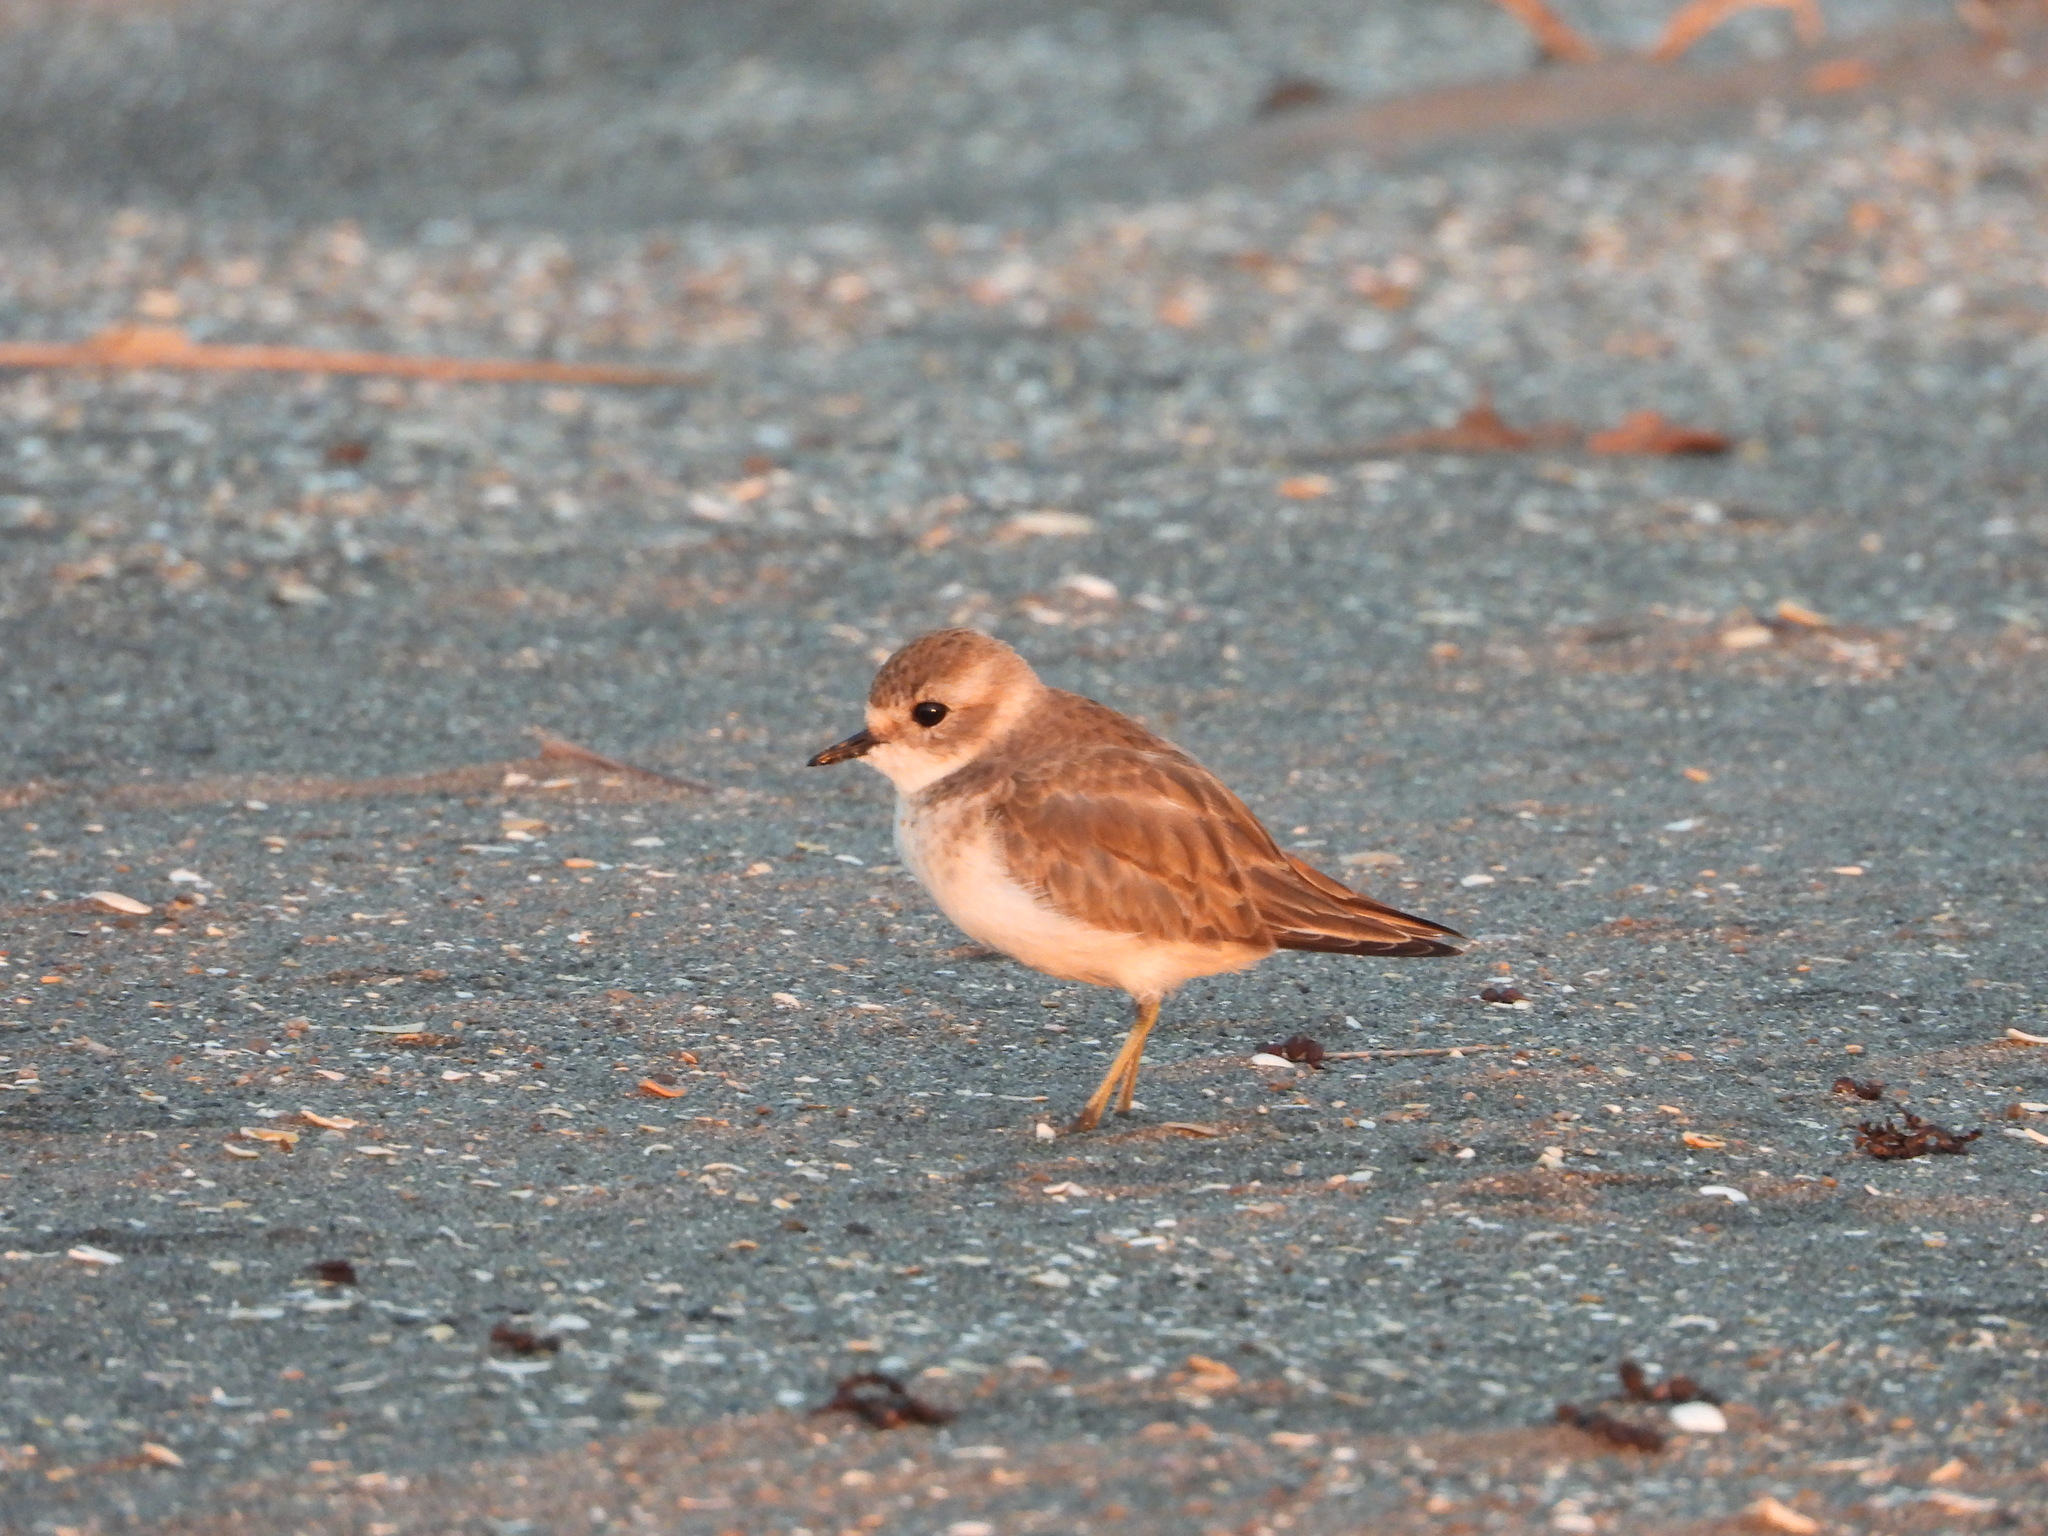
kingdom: Animalia
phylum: Chordata
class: Aves
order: Charadriiformes
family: Charadriidae
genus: Anarhynchus
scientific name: Anarhynchus
